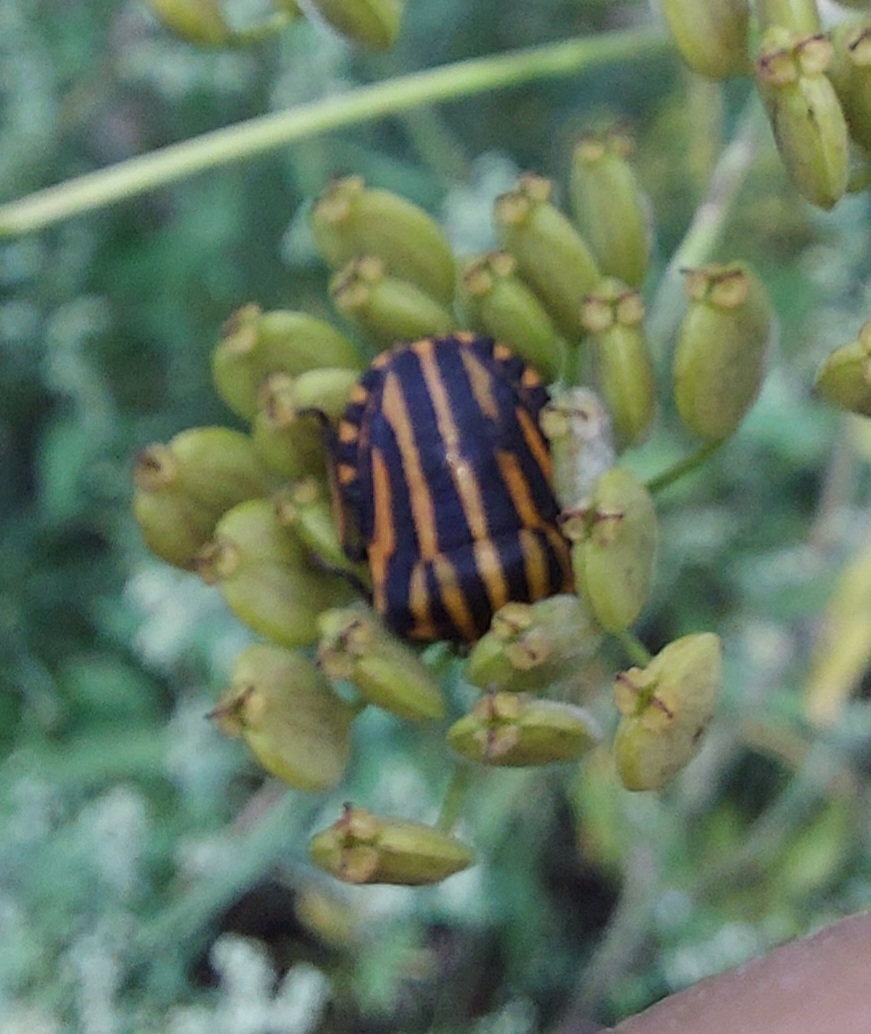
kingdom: Animalia
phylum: Arthropoda
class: Insecta
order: Hemiptera
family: Pentatomidae
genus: Graphosoma
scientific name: Graphosoma italicum
